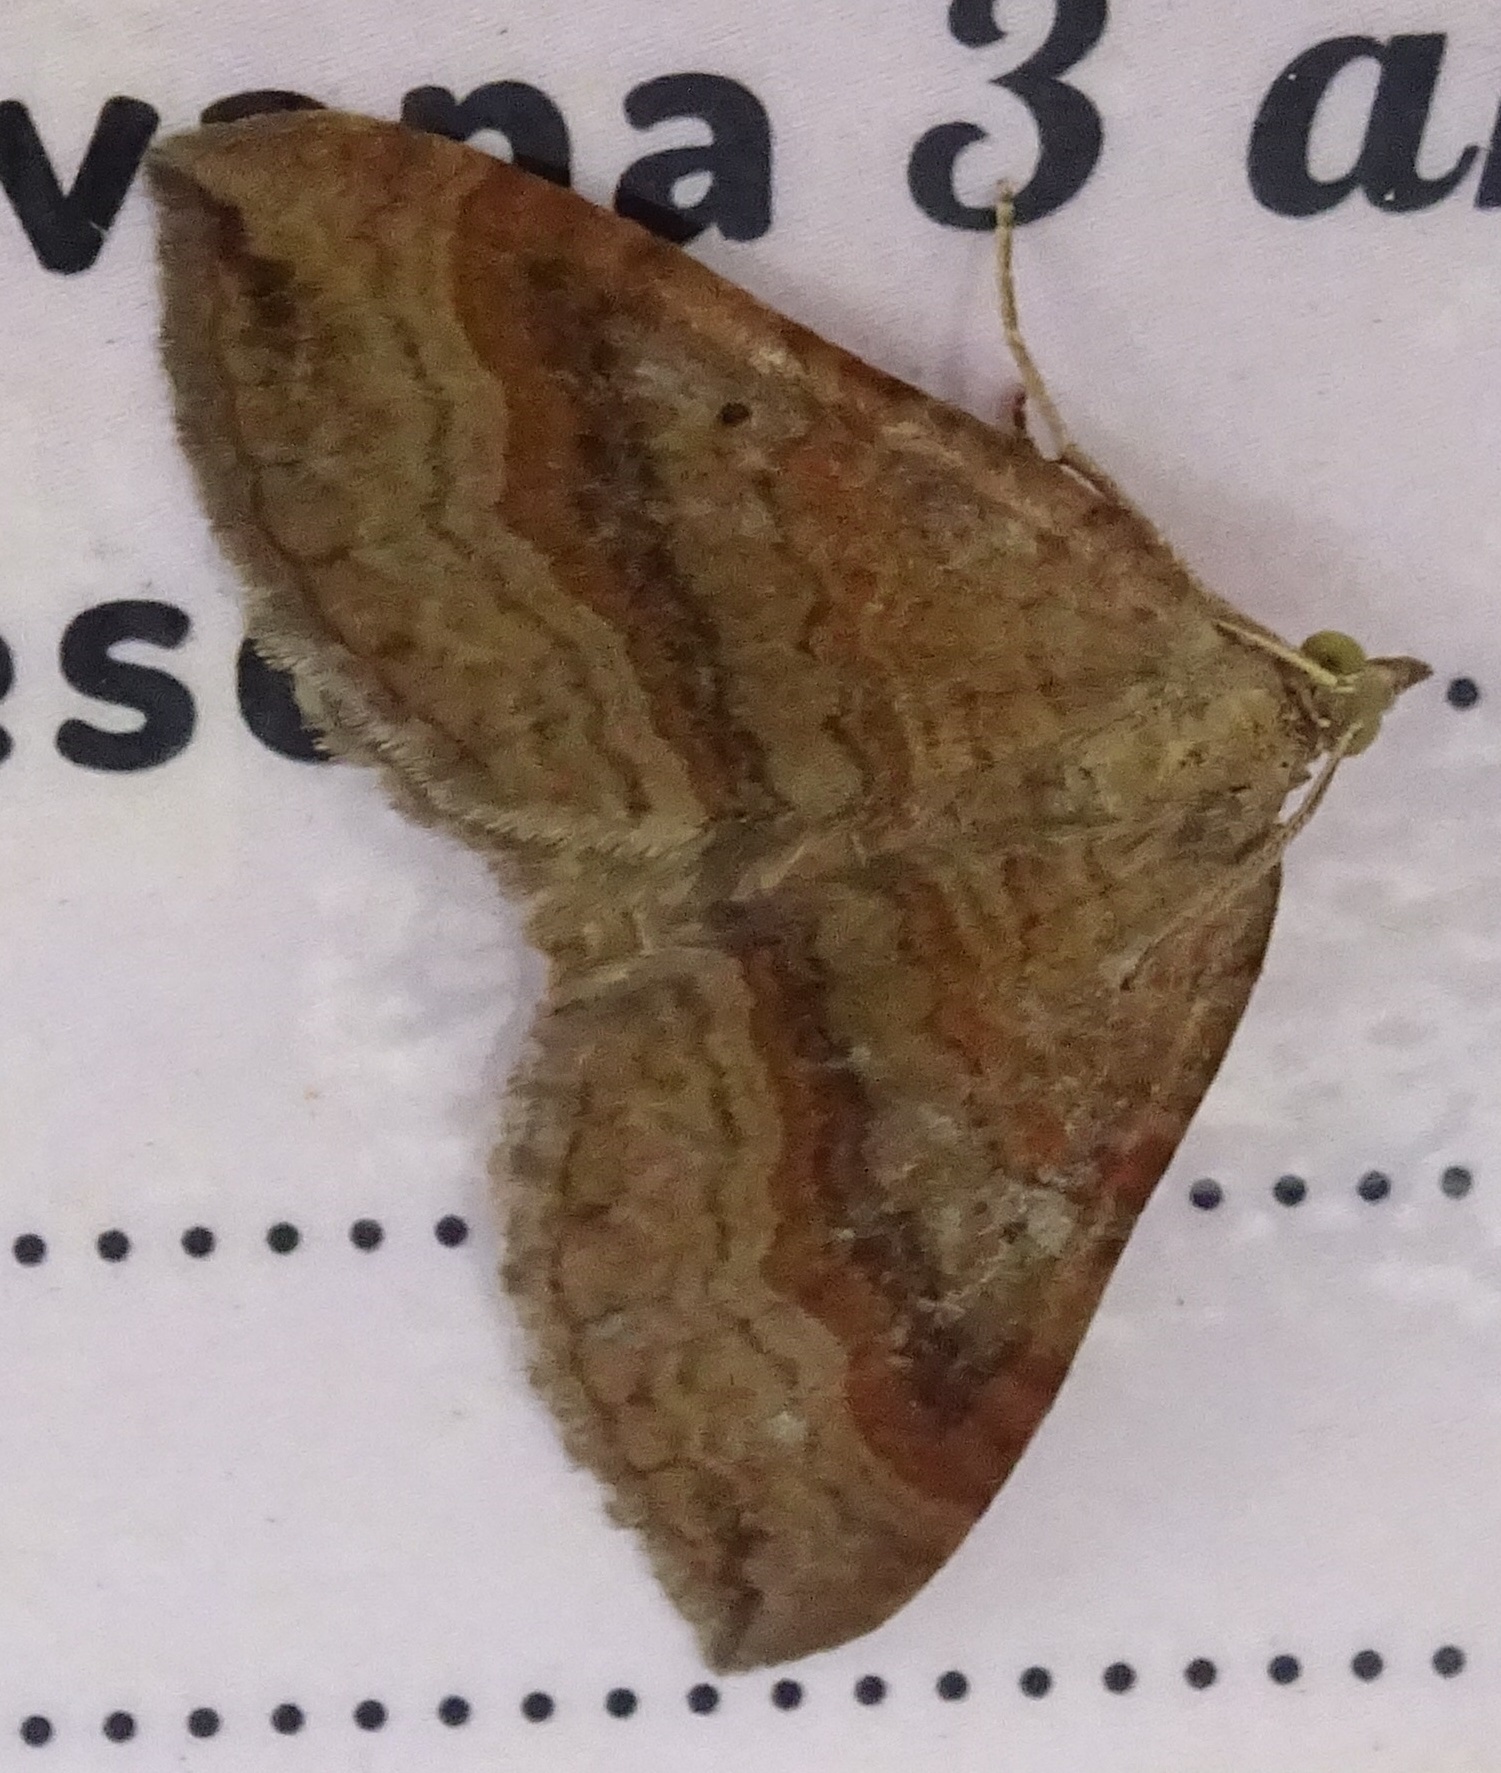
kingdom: Animalia
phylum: Arthropoda
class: Insecta
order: Lepidoptera
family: Geometridae
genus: Scotopteryx
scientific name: Scotopteryx chenopodiata
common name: Shaded broad-bar
